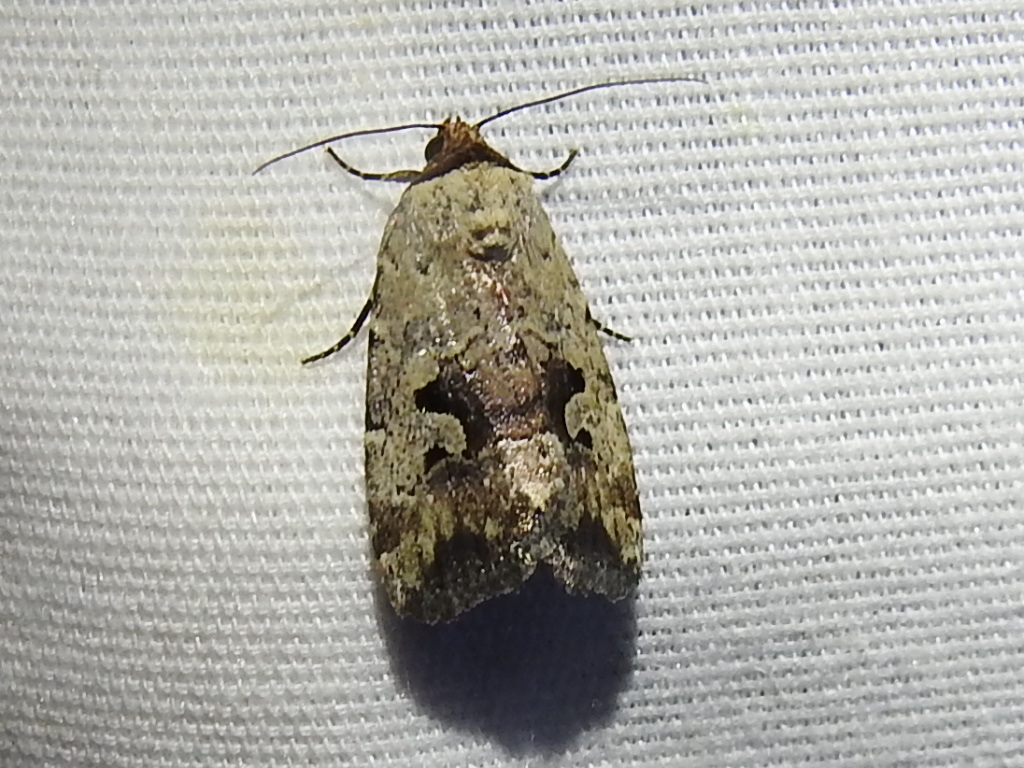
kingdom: Animalia
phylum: Arthropoda
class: Insecta
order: Lepidoptera
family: Noctuidae
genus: Elaphria
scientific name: Elaphria festivoides
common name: Festive midget
